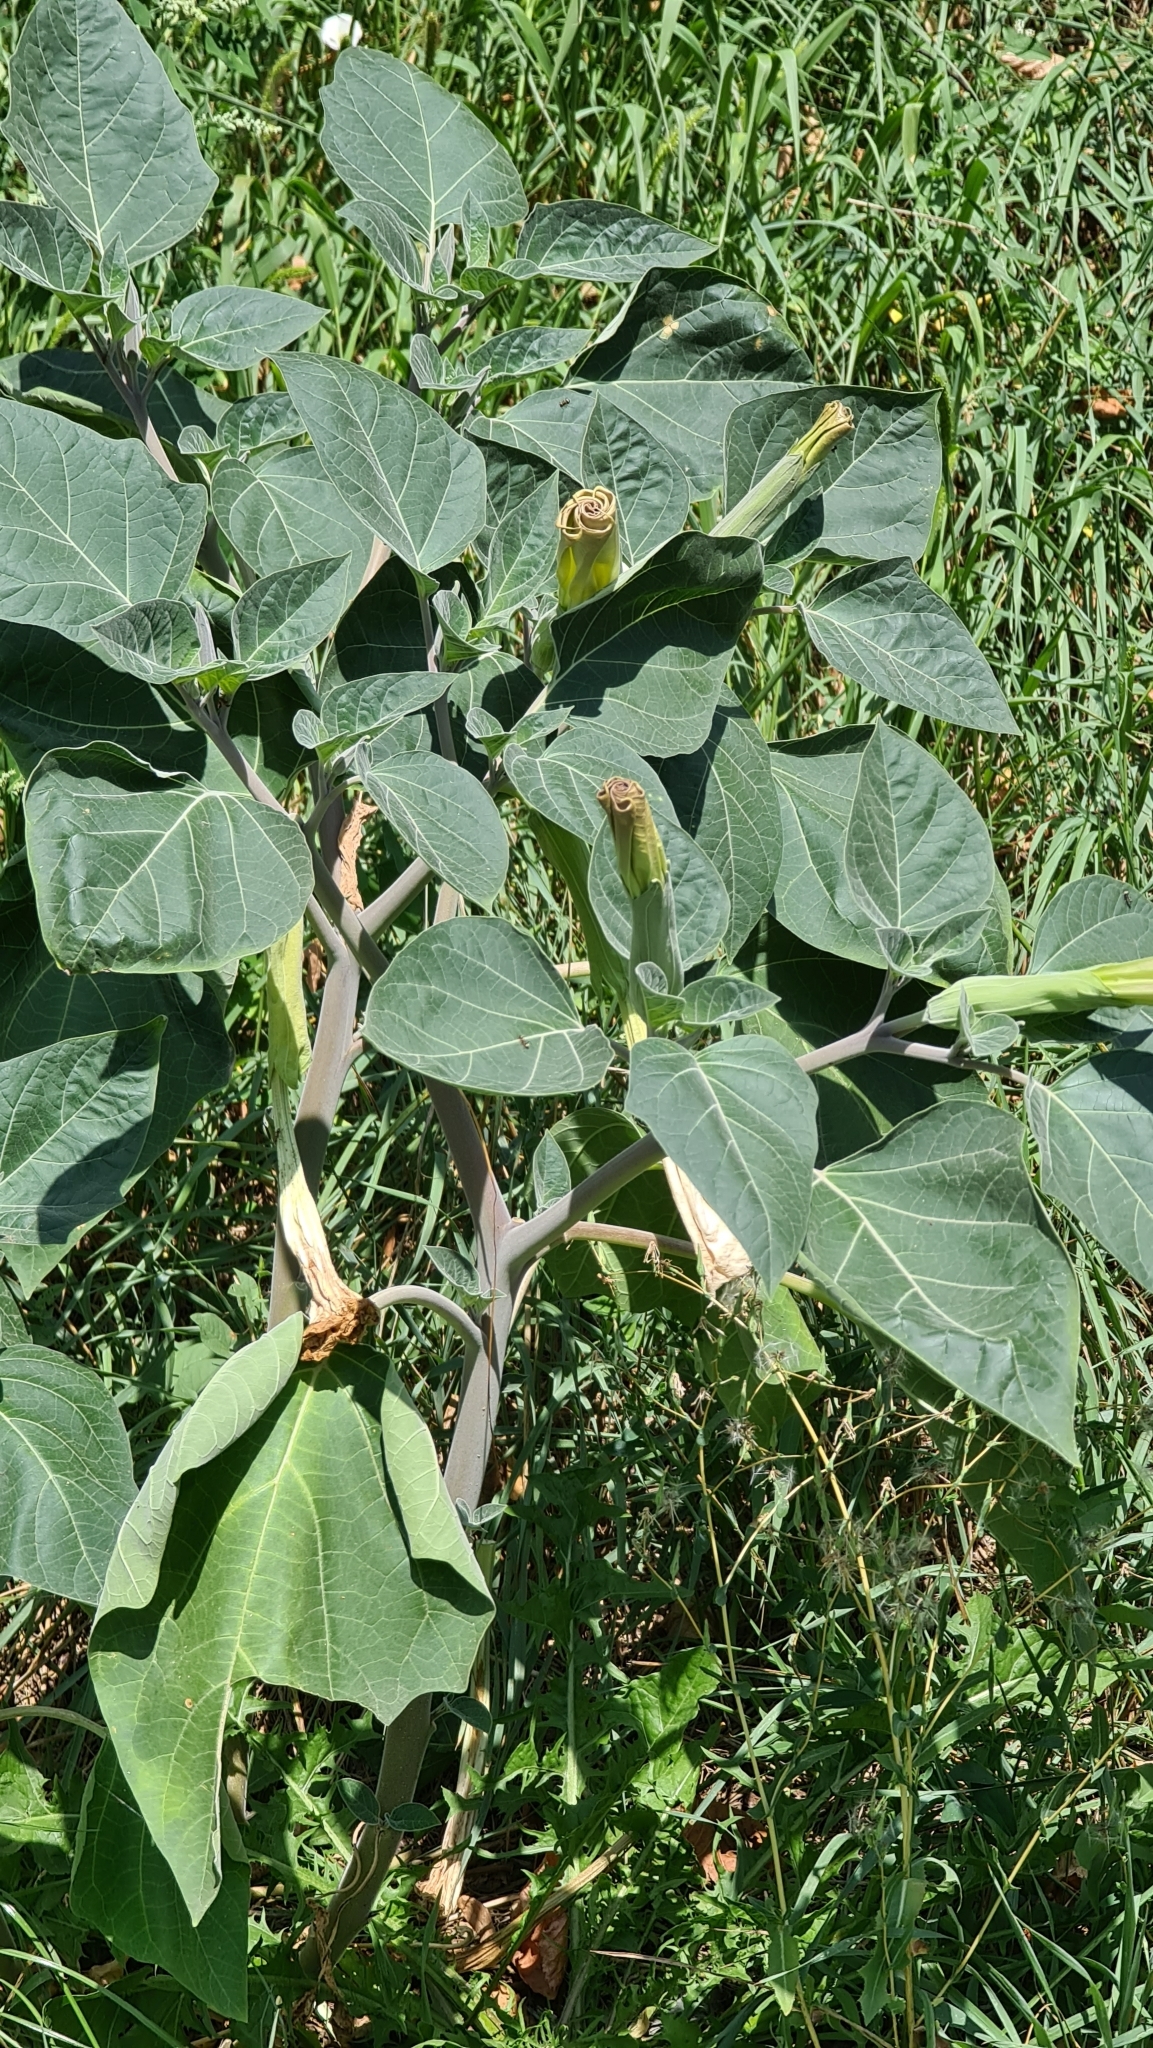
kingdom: Plantae
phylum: Tracheophyta
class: Magnoliopsida
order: Solanales
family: Solanaceae
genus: Datura
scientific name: Datura wrightii
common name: Sacred thorn-apple
